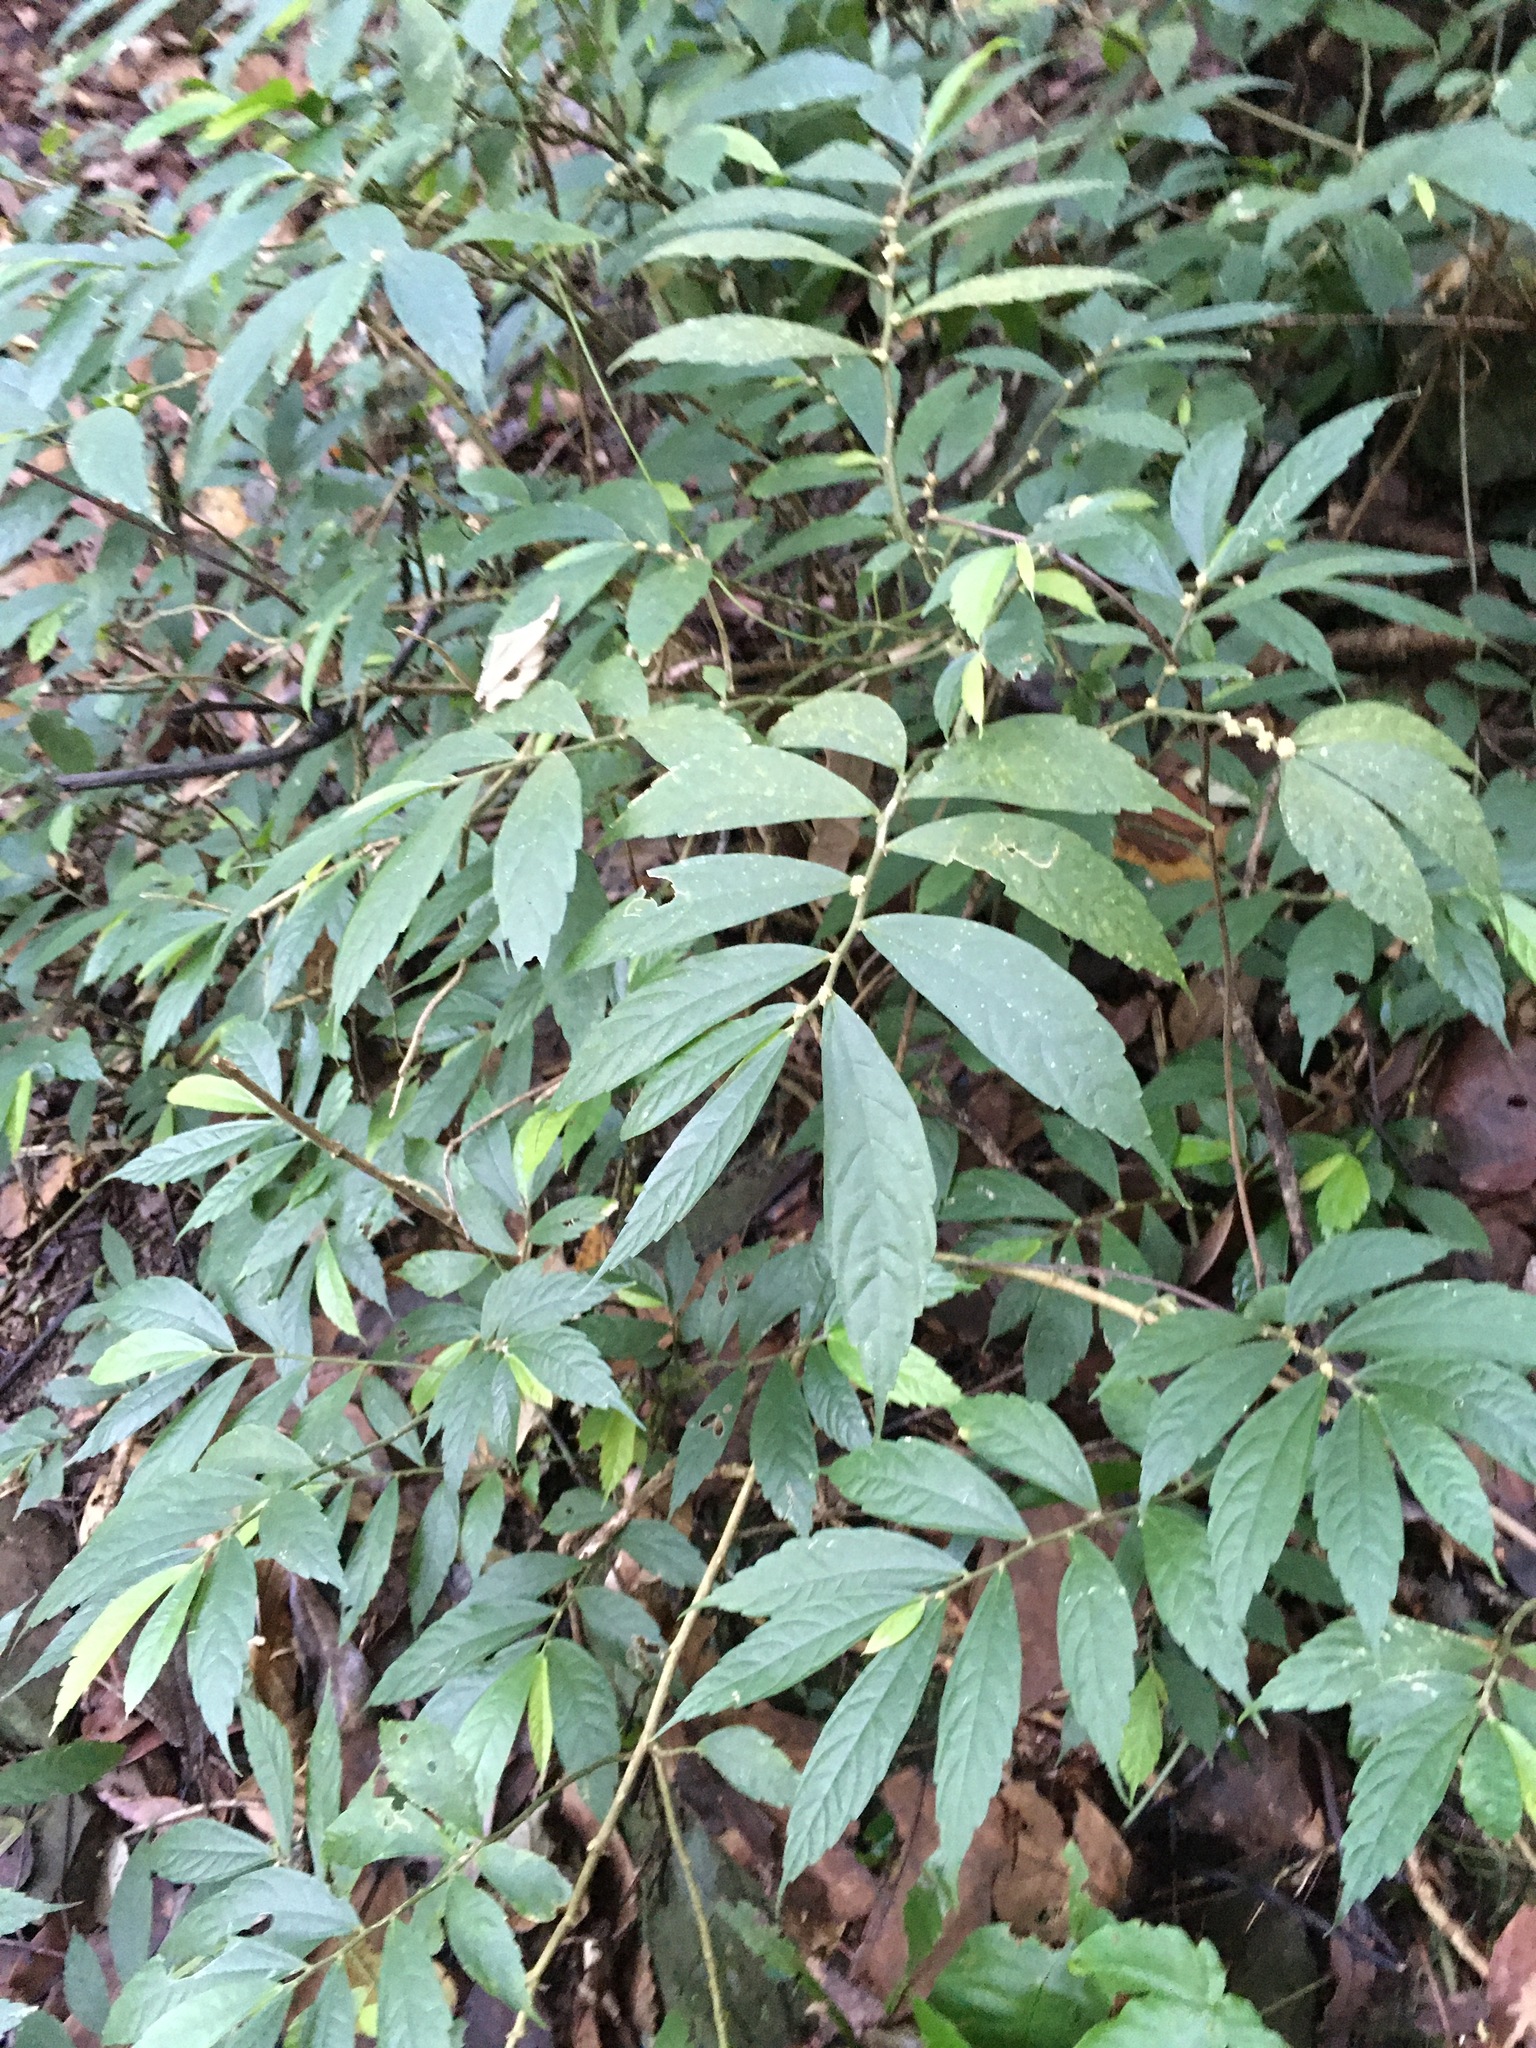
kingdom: Plantae
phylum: Tracheophyta
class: Magnoliopsida
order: Rosales
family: Urticaceae
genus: Elatostema
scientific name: Elatostema lineolatum
